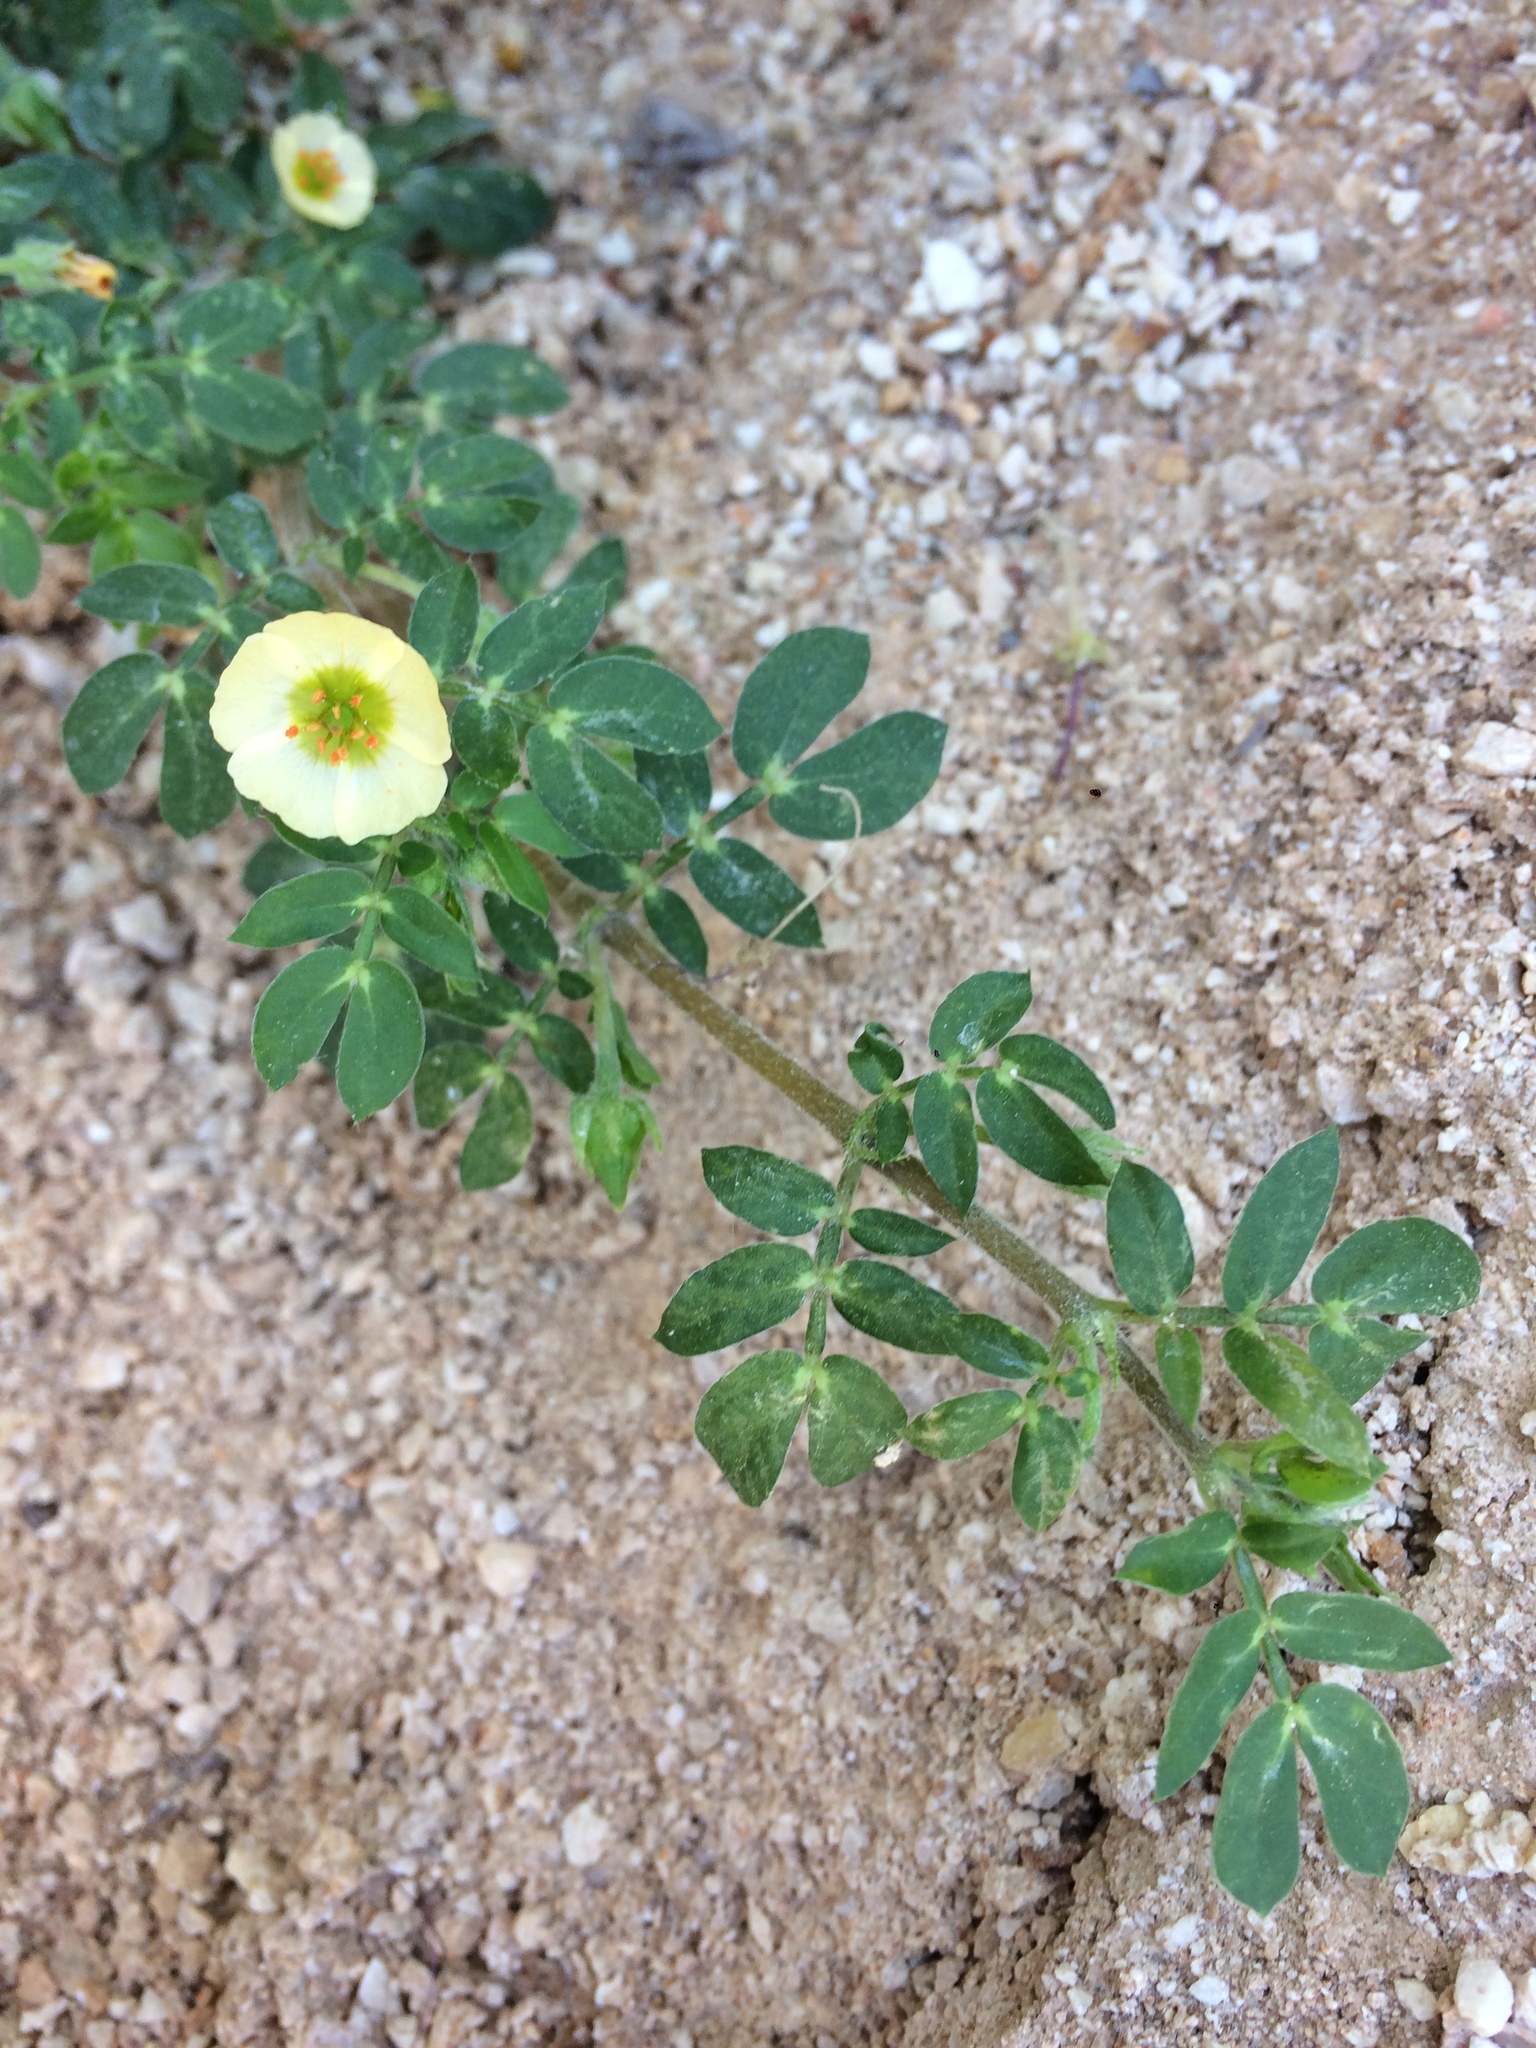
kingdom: Plantae
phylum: Tracheophyta
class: Magnoliopsida
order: Zygophyllales
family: Zygophyllaceae
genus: Kallstroemia
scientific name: Kallstroemia maxima
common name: Big caltropa
